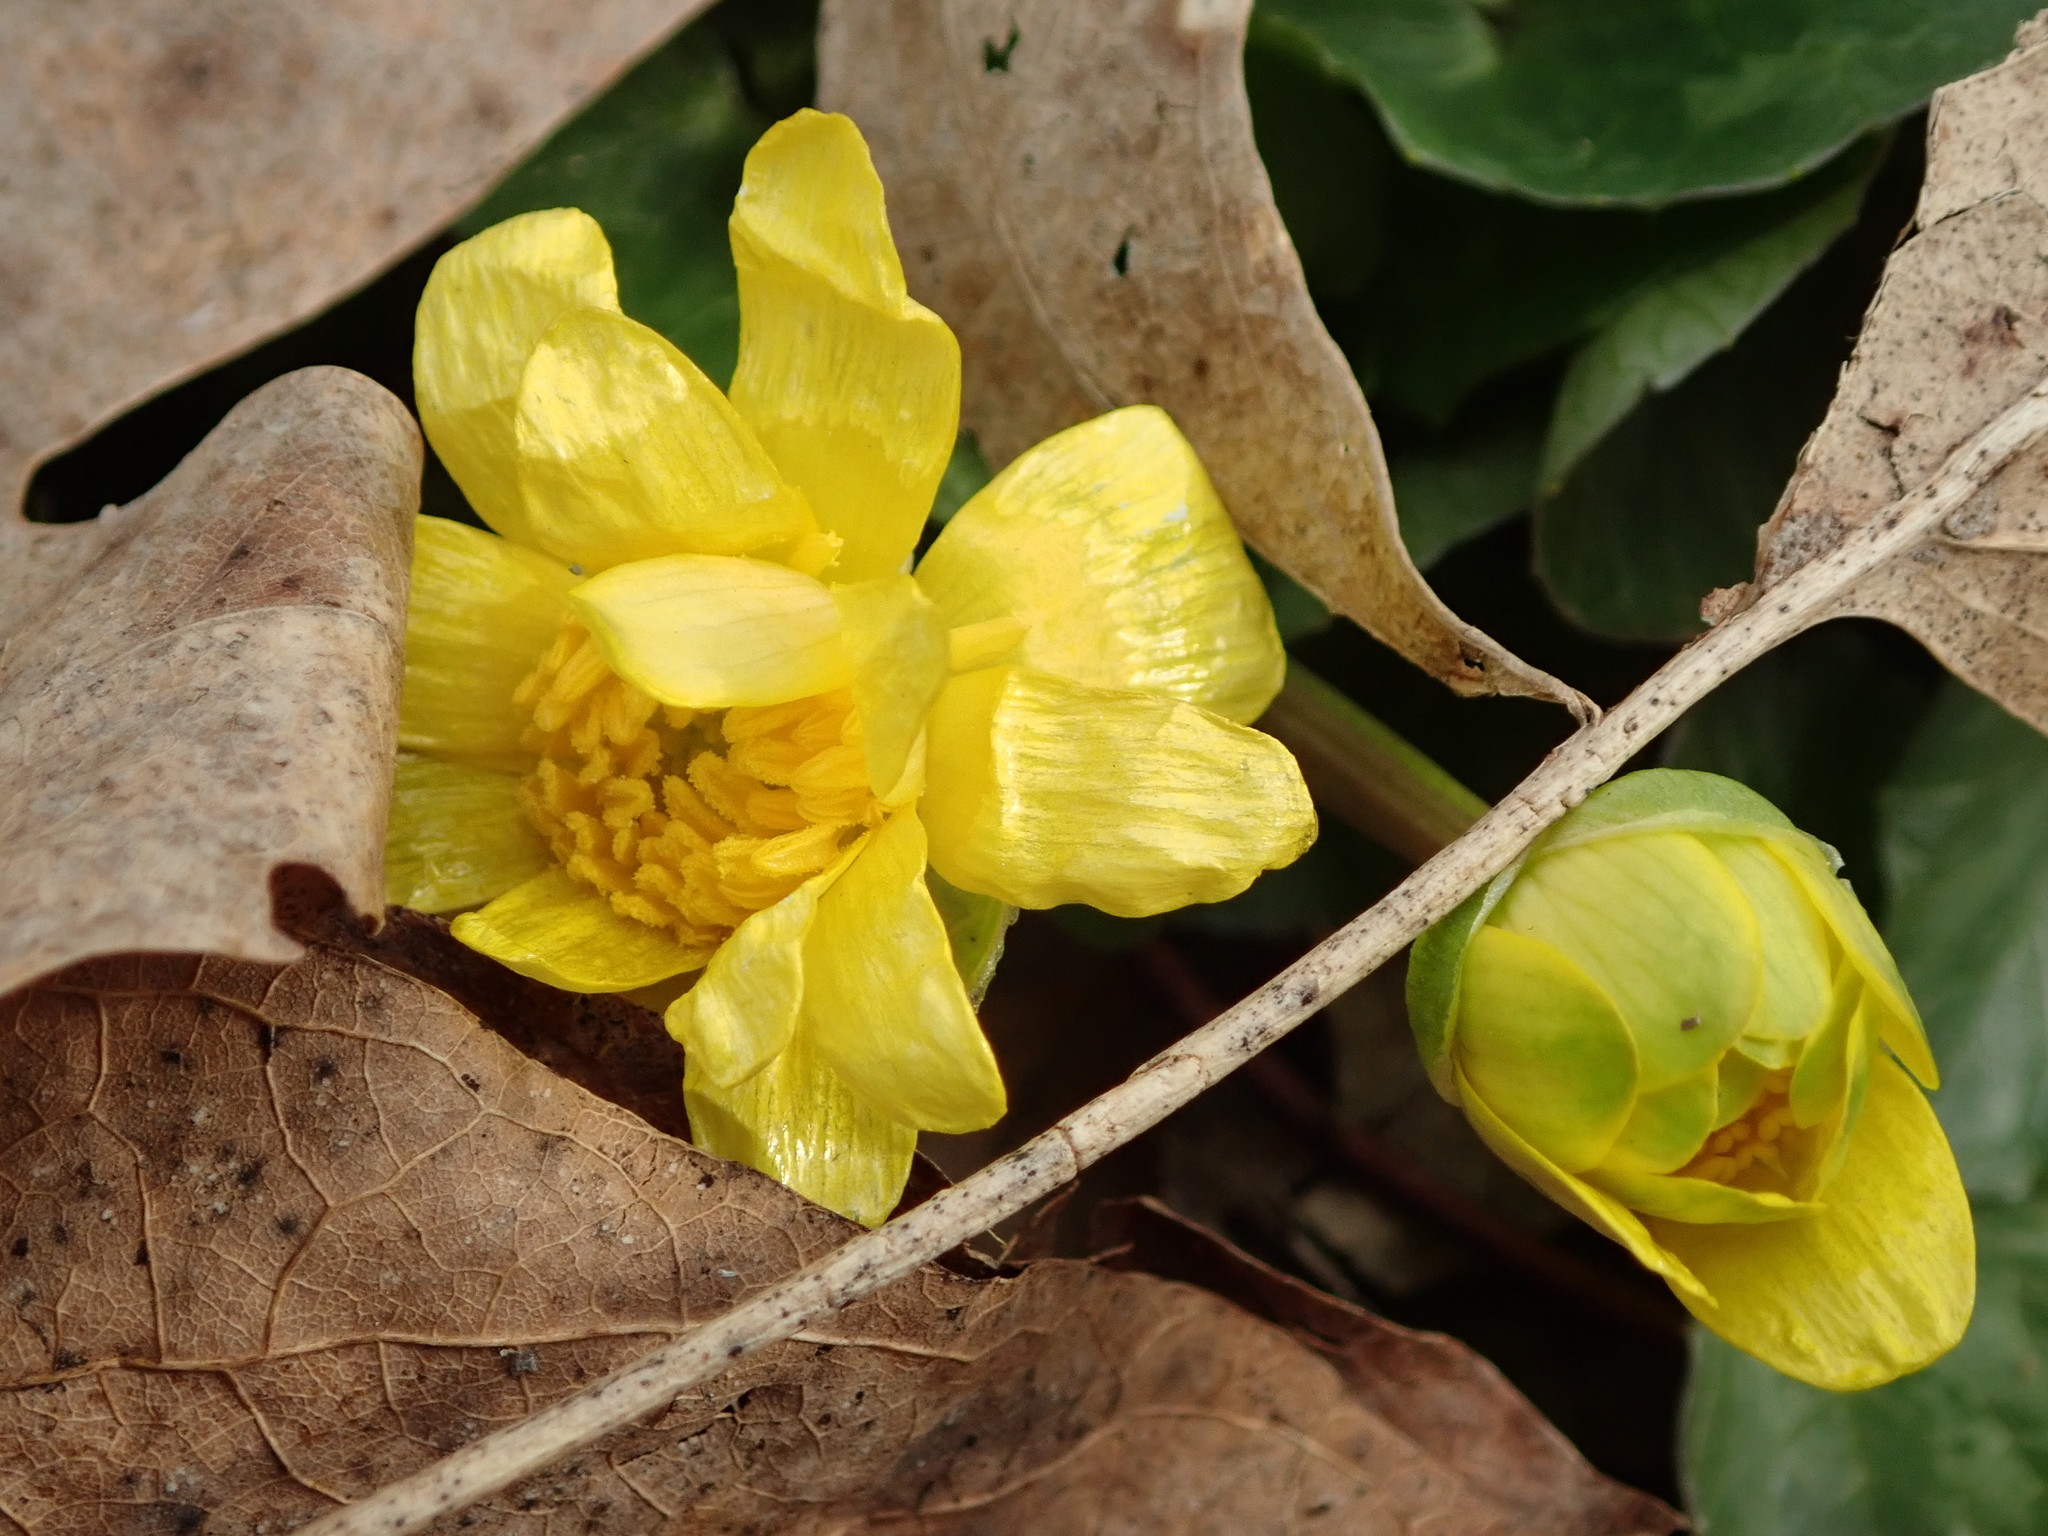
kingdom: Plantae
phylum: Tracheophyta
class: Magnoliopsida
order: Ranunculales
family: Ranunculaceae
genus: Ficaria
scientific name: Ficaria verna
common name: Lesser celandine
